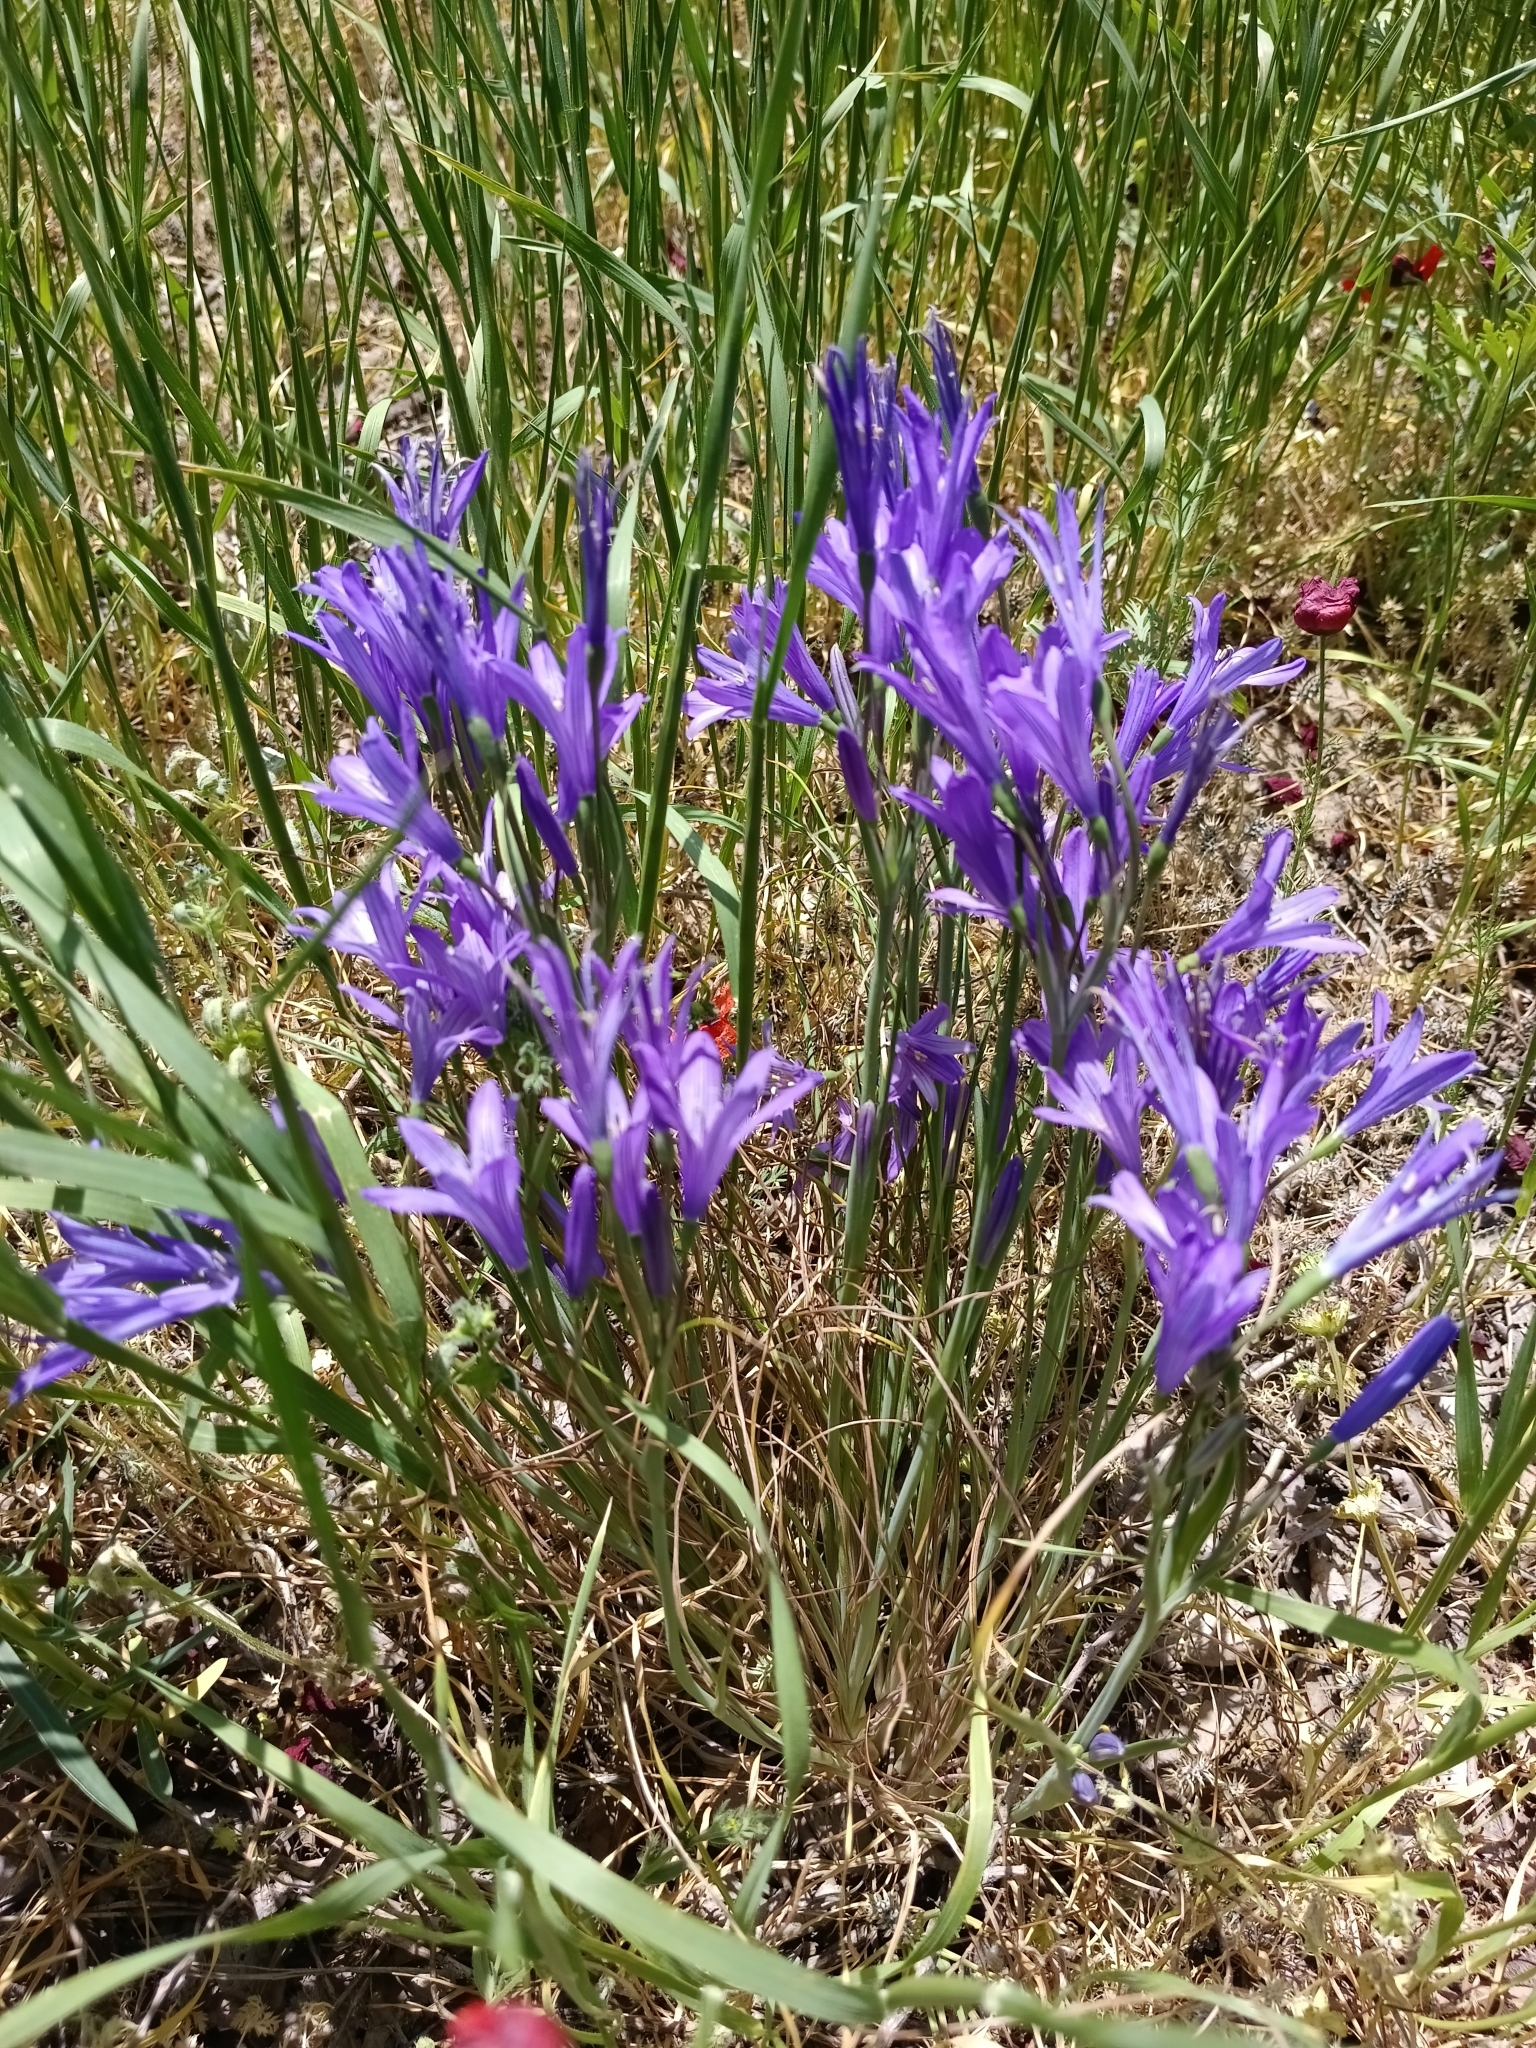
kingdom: Plantae
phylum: Tracheophyta
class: Liliopsida
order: Asparagales
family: Ixioliriaceae
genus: Ixiolirion
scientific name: Ixiolirion tataricum
